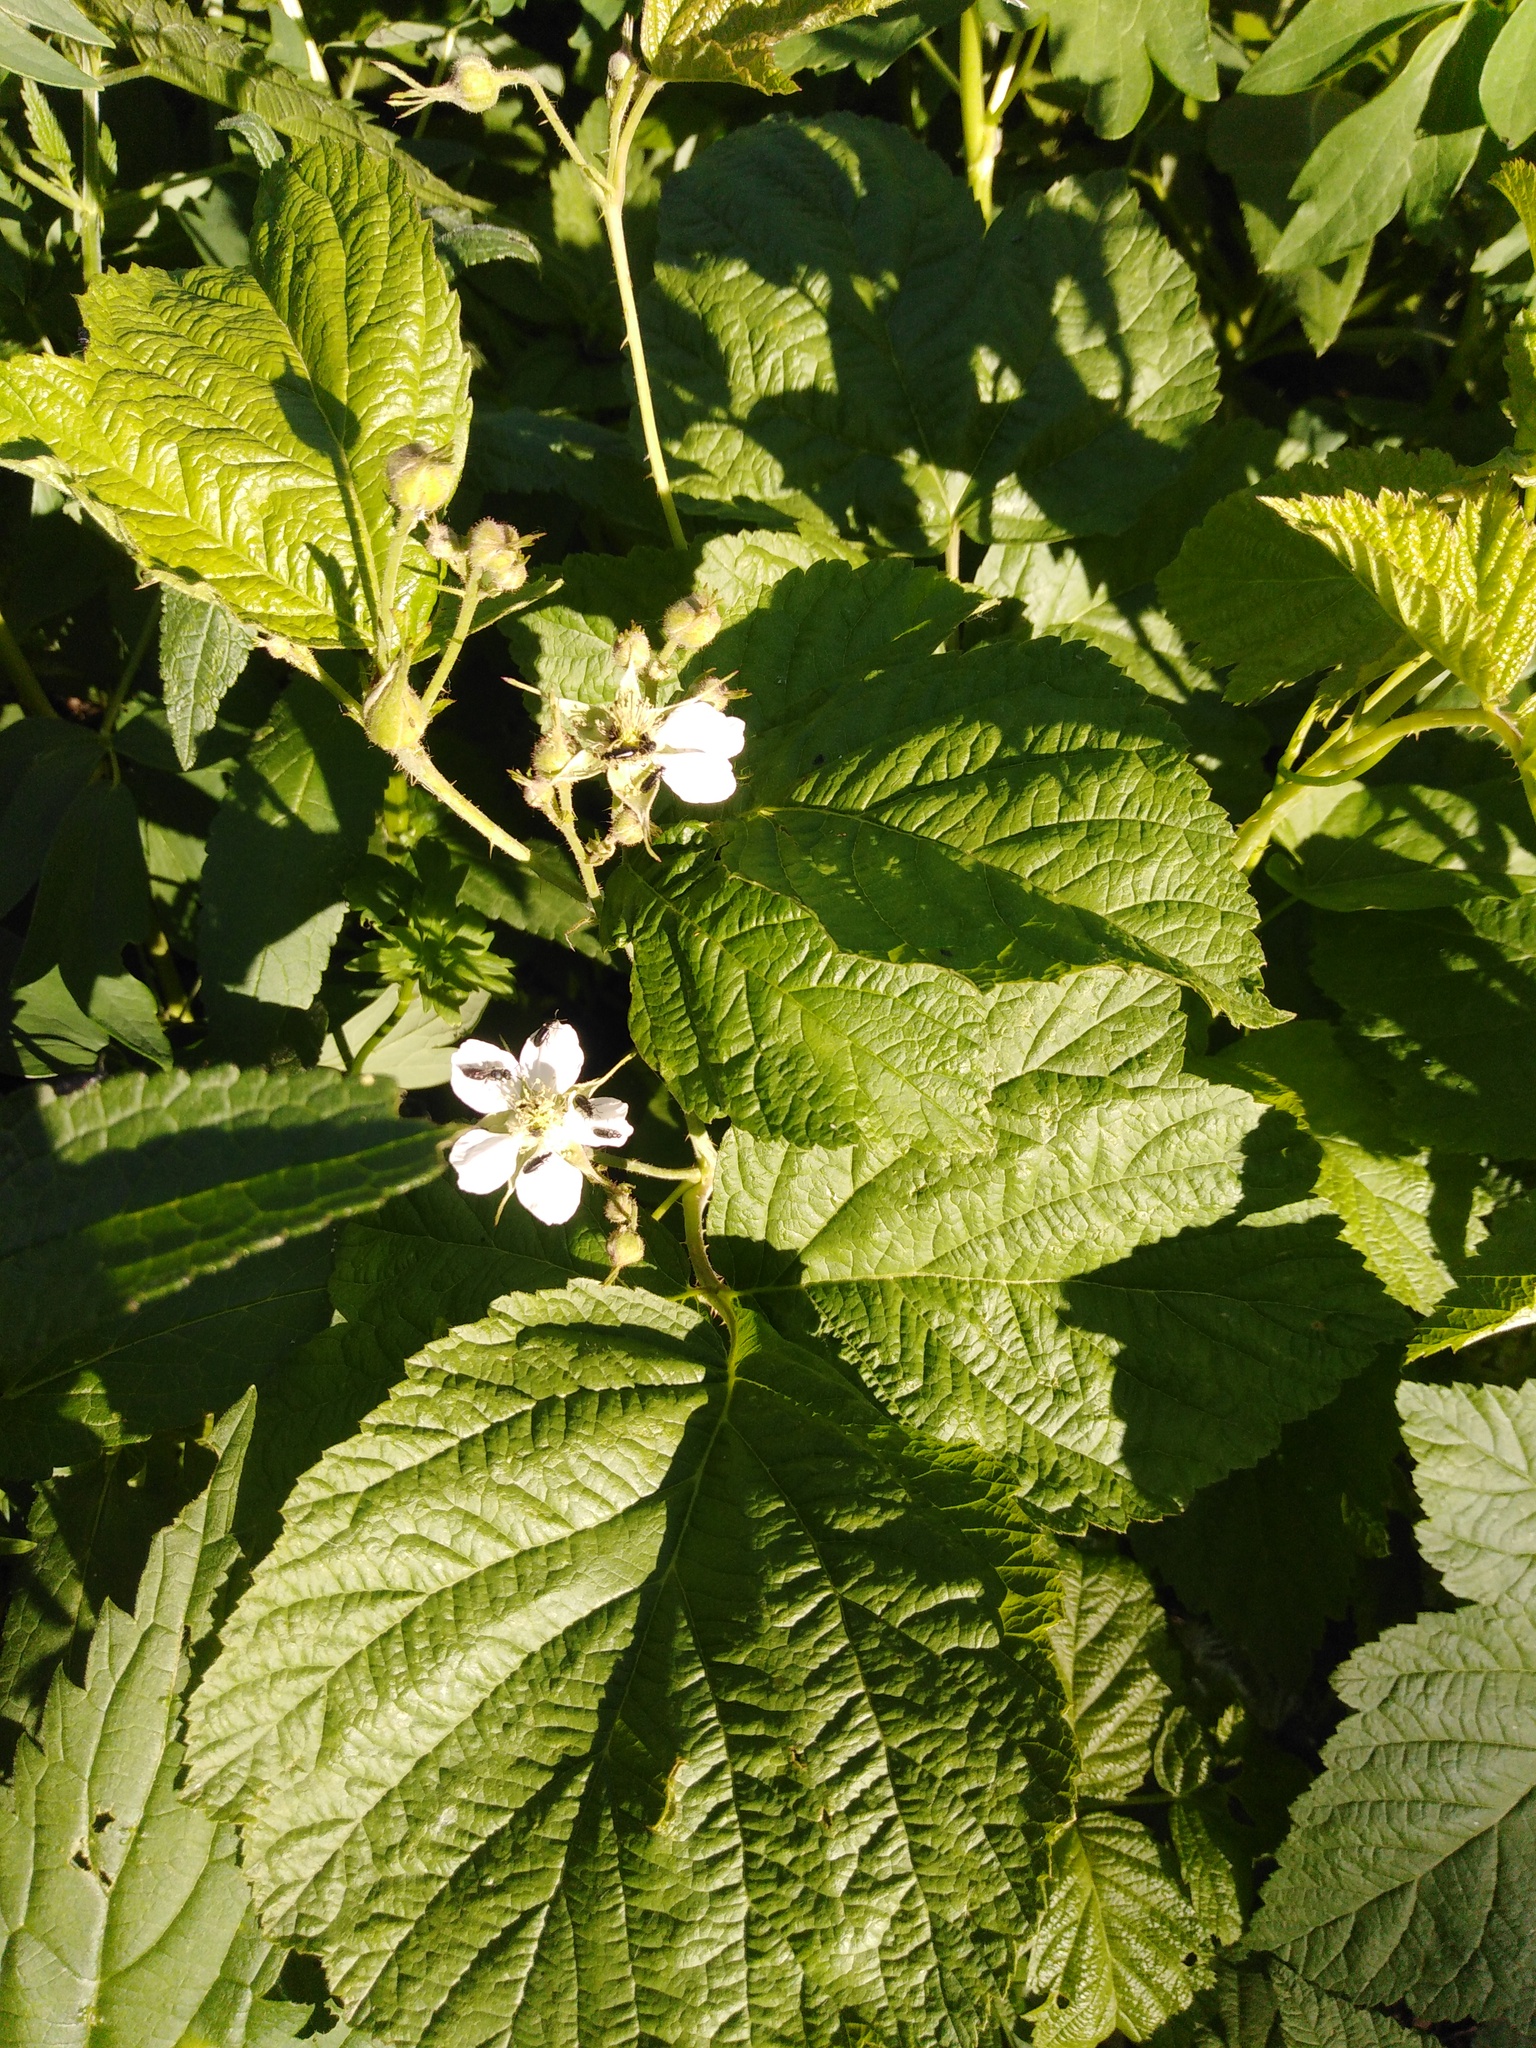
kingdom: Plantae
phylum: Tracheophyta
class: Magnoliopsida
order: Rosales
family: Rosaceae
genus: Rubus
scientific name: Rubus caesius
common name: Dewberry
